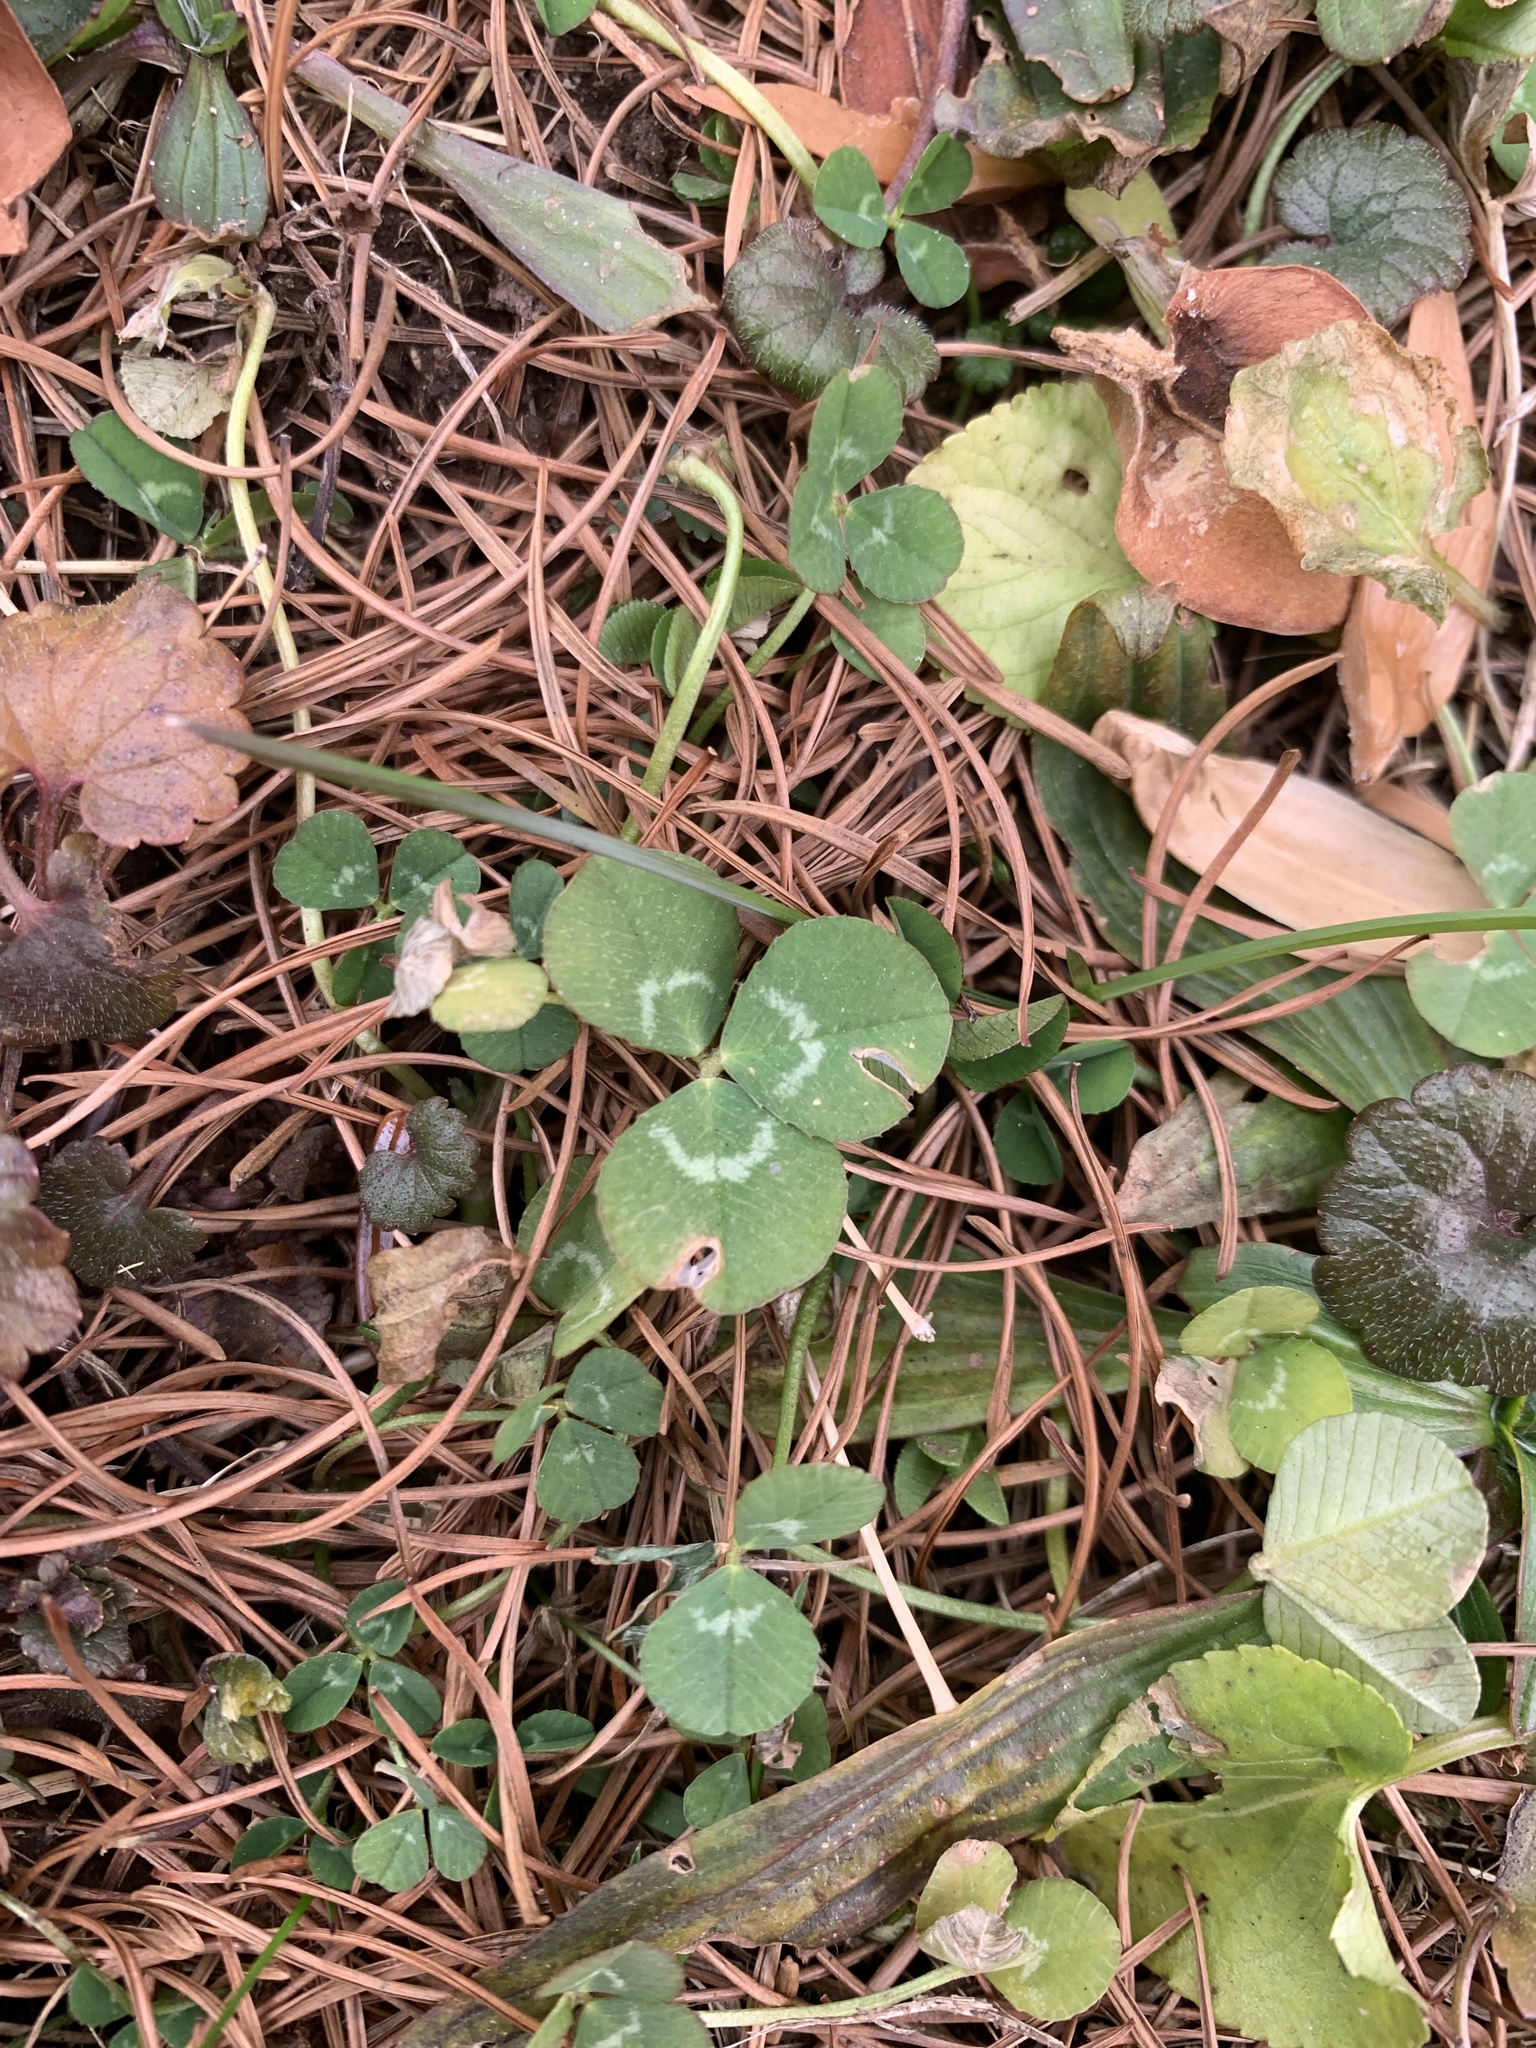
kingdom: Plantae
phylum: Tracheophyta
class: Magnoliopsida
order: Fabales
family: Fabaceae
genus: Trifolium
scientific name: Trifolium repens
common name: White clover
